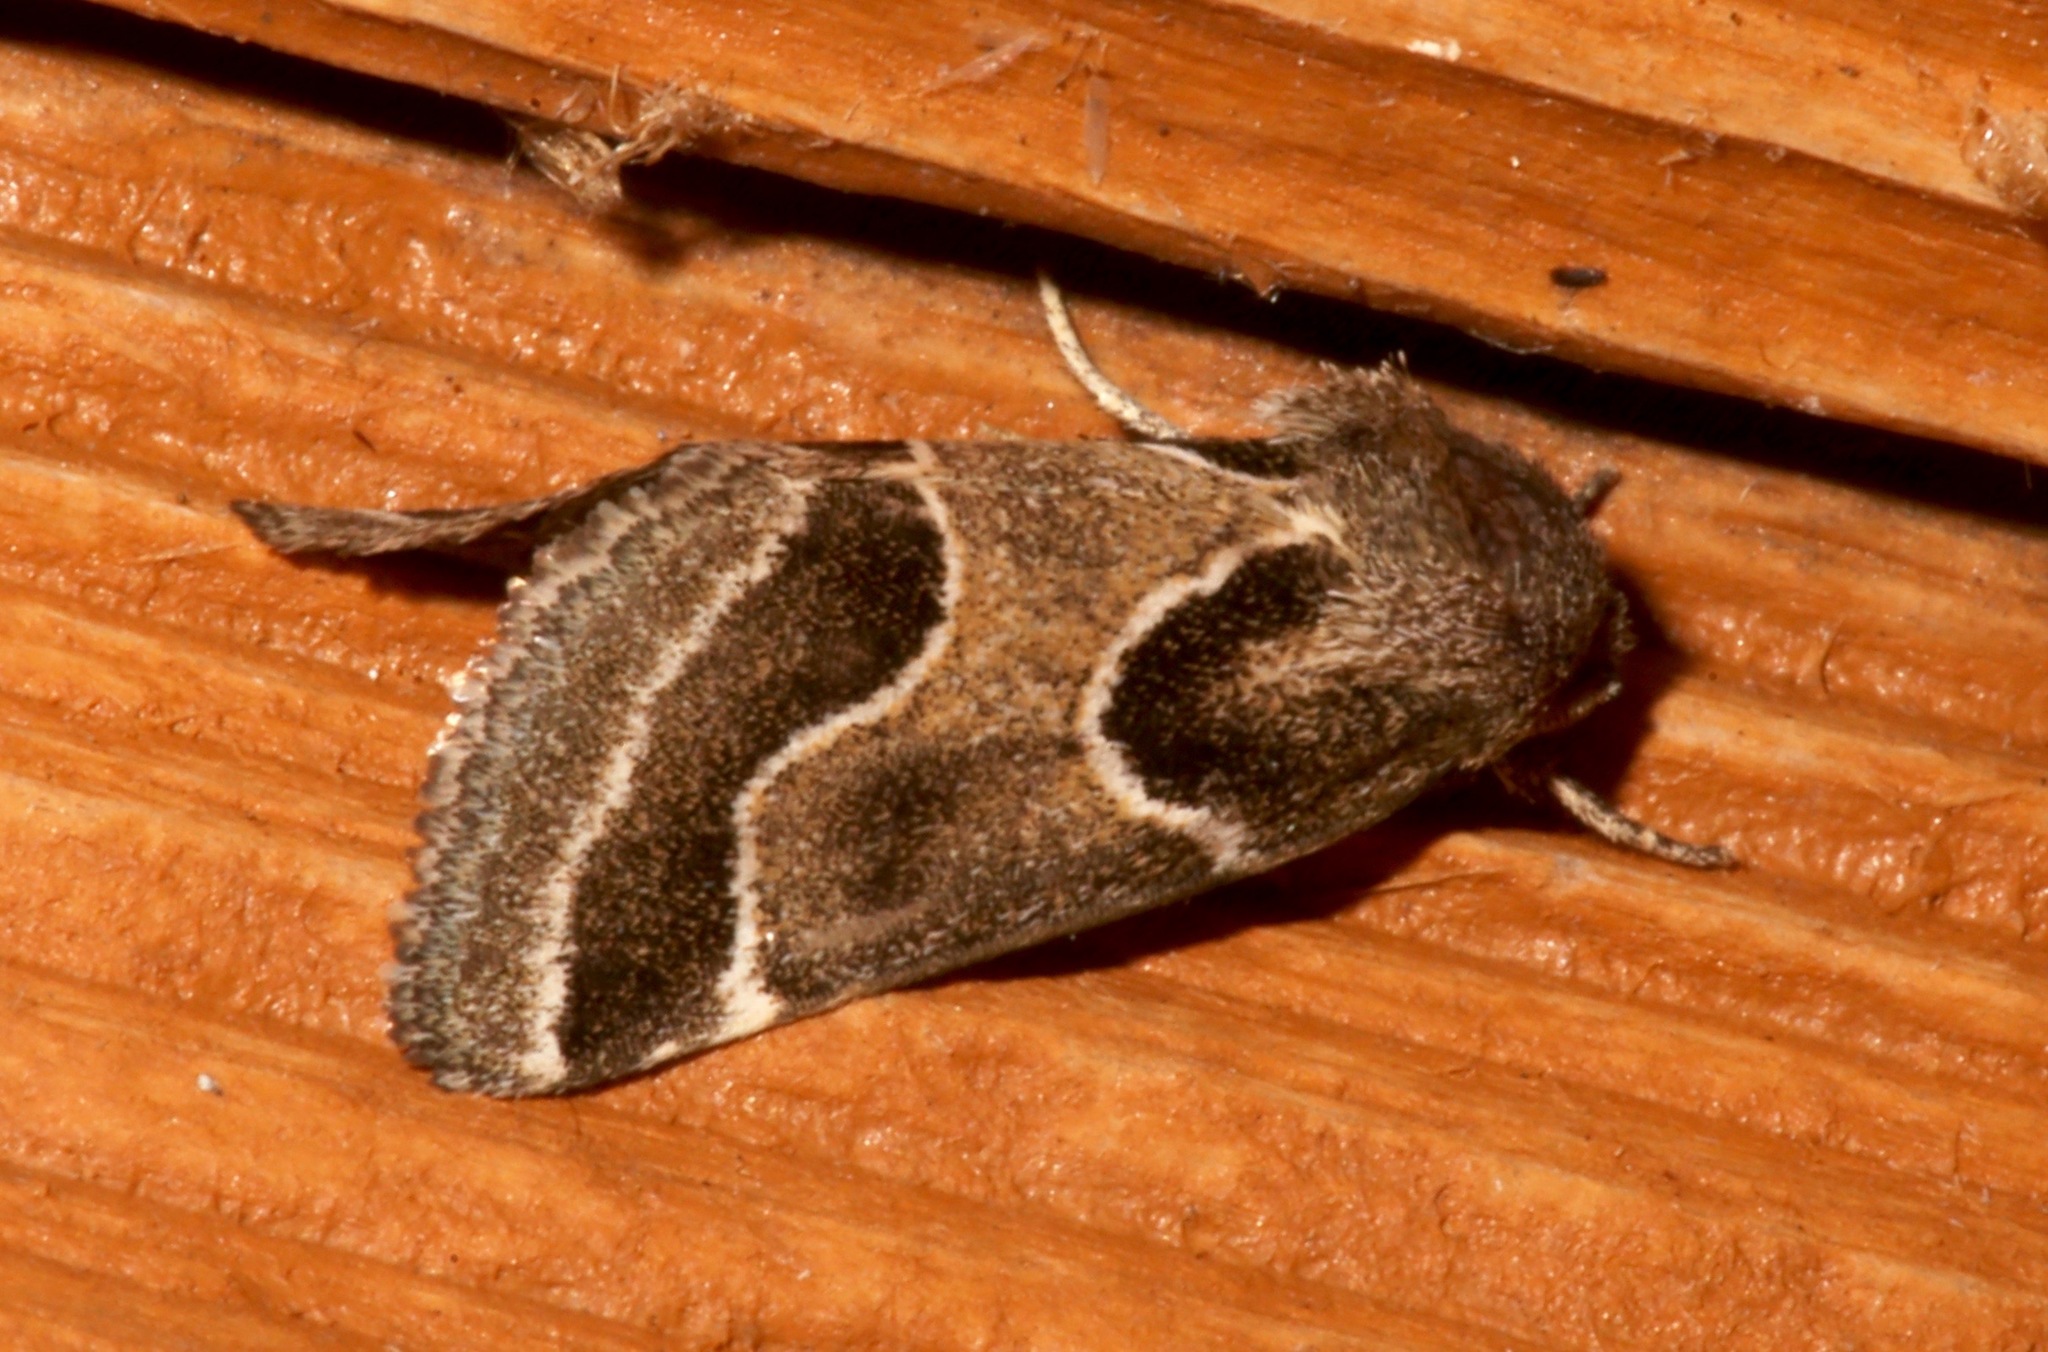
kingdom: Animalia
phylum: Arthropoda
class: Insecta
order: Lepidoptera
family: Noctuidae
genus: Schinia
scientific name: Schinia rivulosa
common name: Scarce meal-moth
